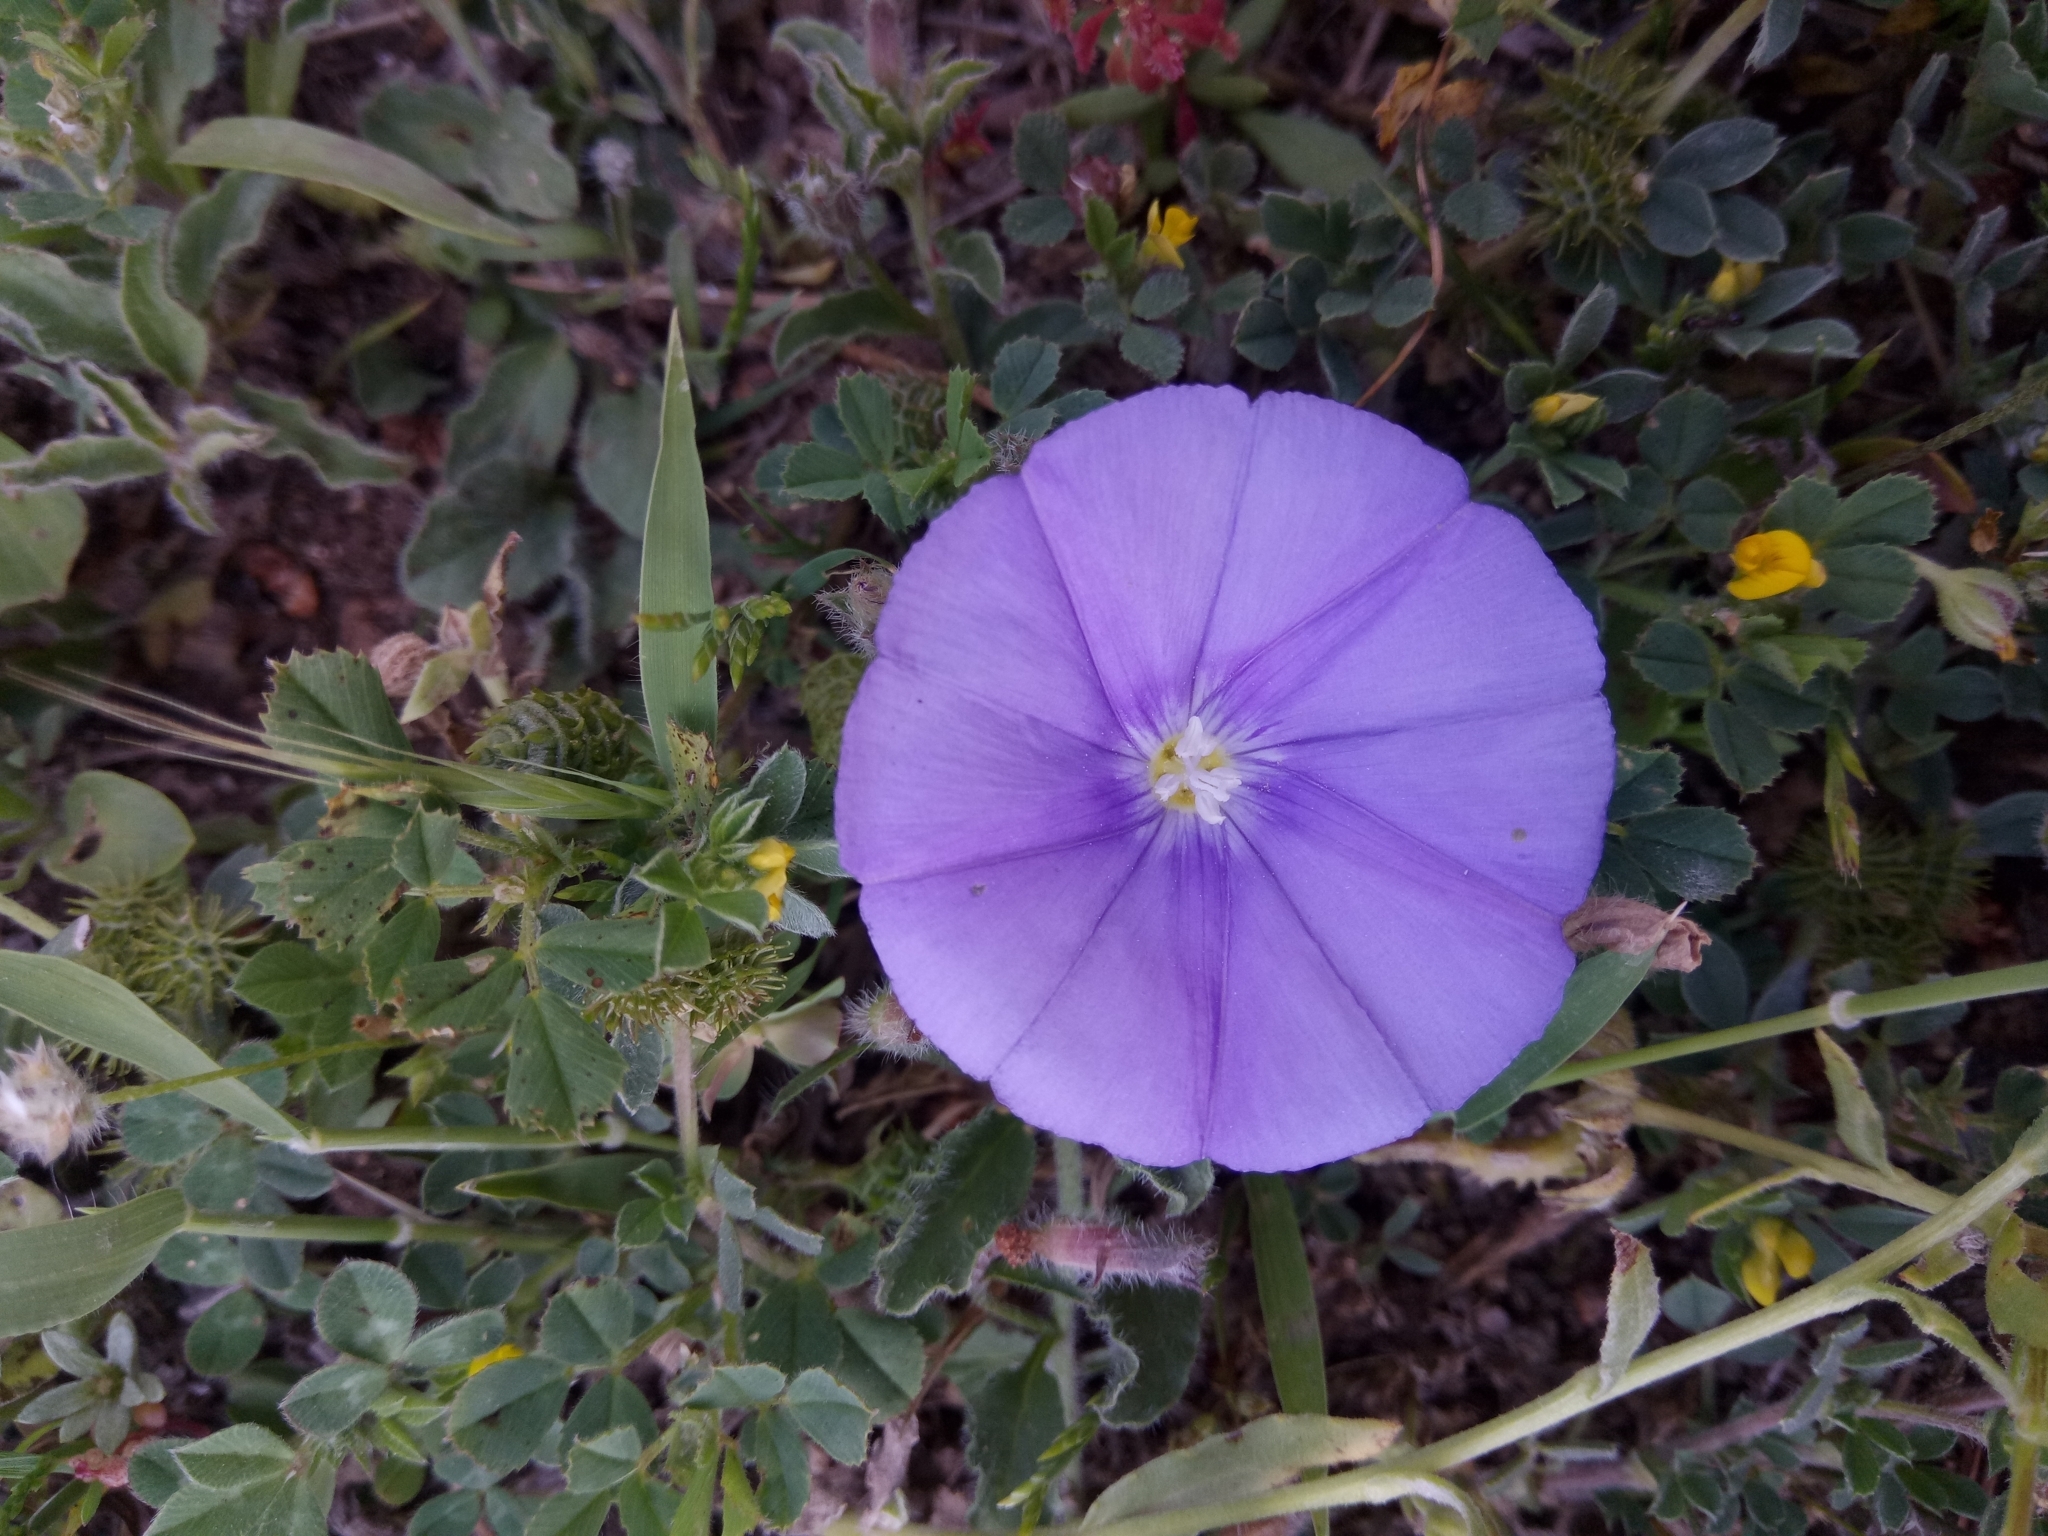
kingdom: Plantae
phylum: Tracheophyta
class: Magnoliopsida
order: Solanales
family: Convolvulaceae
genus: Convolvulus
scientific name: Convolvulus sabatius
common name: Ground blue-convolvulus
